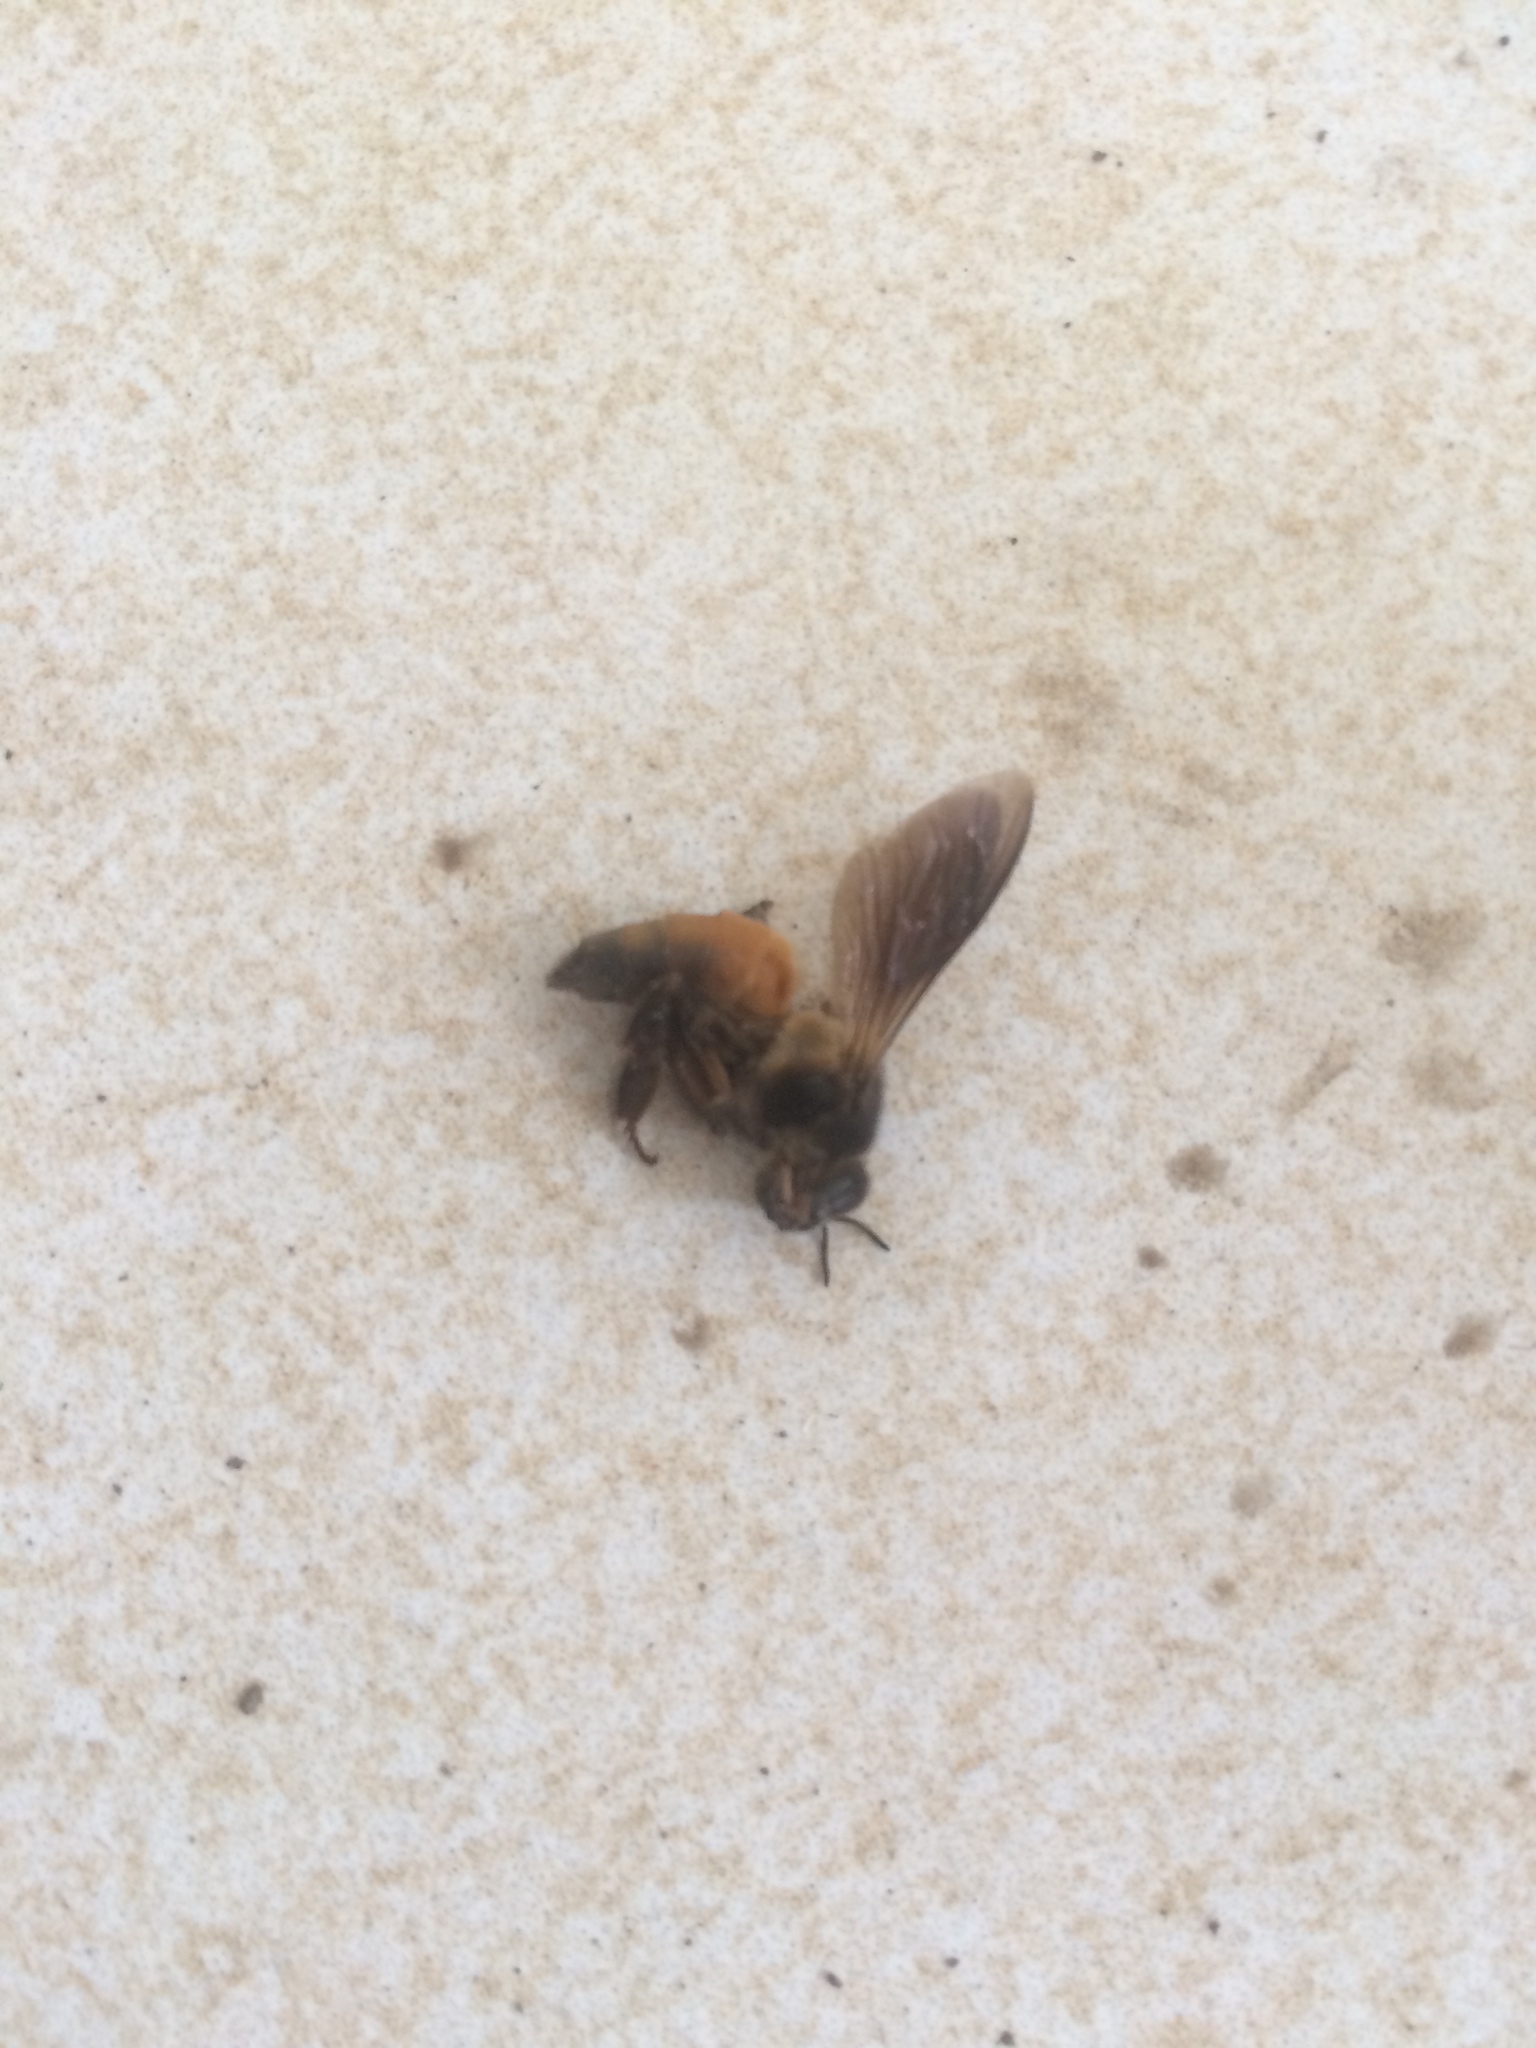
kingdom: Animalia
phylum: Arthropoda
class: Insecta
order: Hymenoptera
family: Apidae
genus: Apis
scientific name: Apis dorsata
